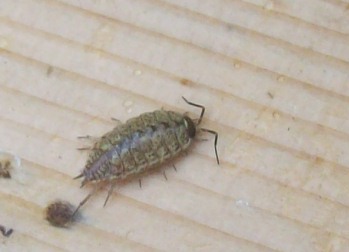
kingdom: Animalia
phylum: Arthropoda
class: Malacostraca
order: Isopoda
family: Philosciidae
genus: Philoscia
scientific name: Philoscia muscorum
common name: Common striped woodlouse
